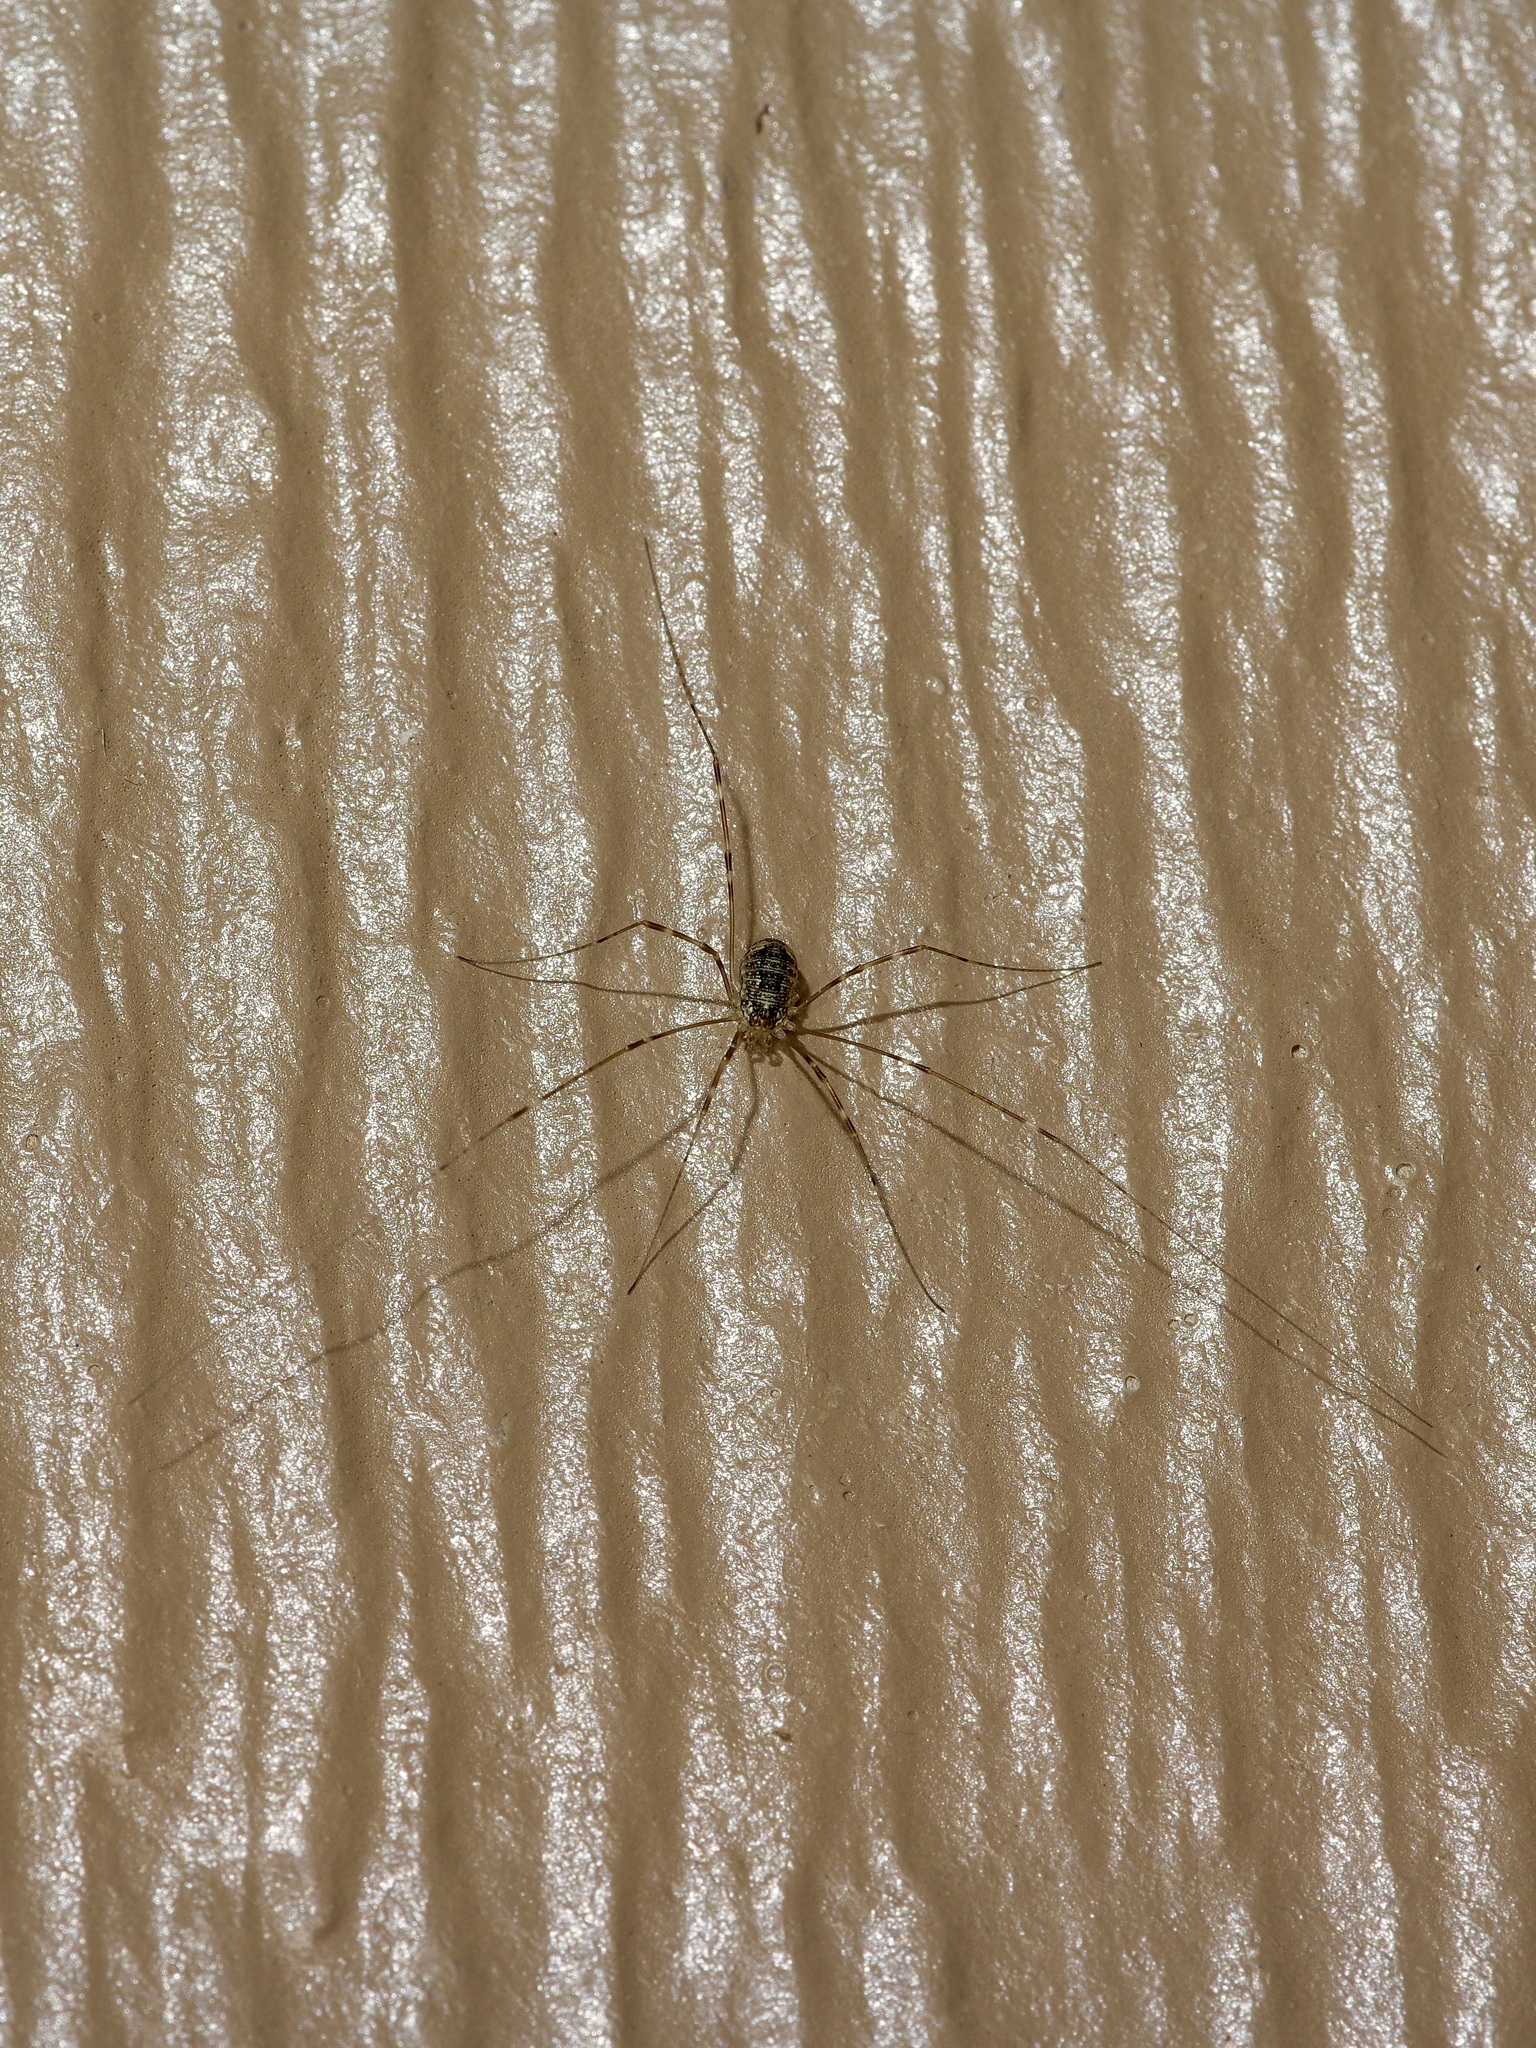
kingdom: Animalia
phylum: Arthropoda
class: Arachnida
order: Opiliones
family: Sclerosomatidae
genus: Leiobunum
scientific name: Leiobunum townsendi
